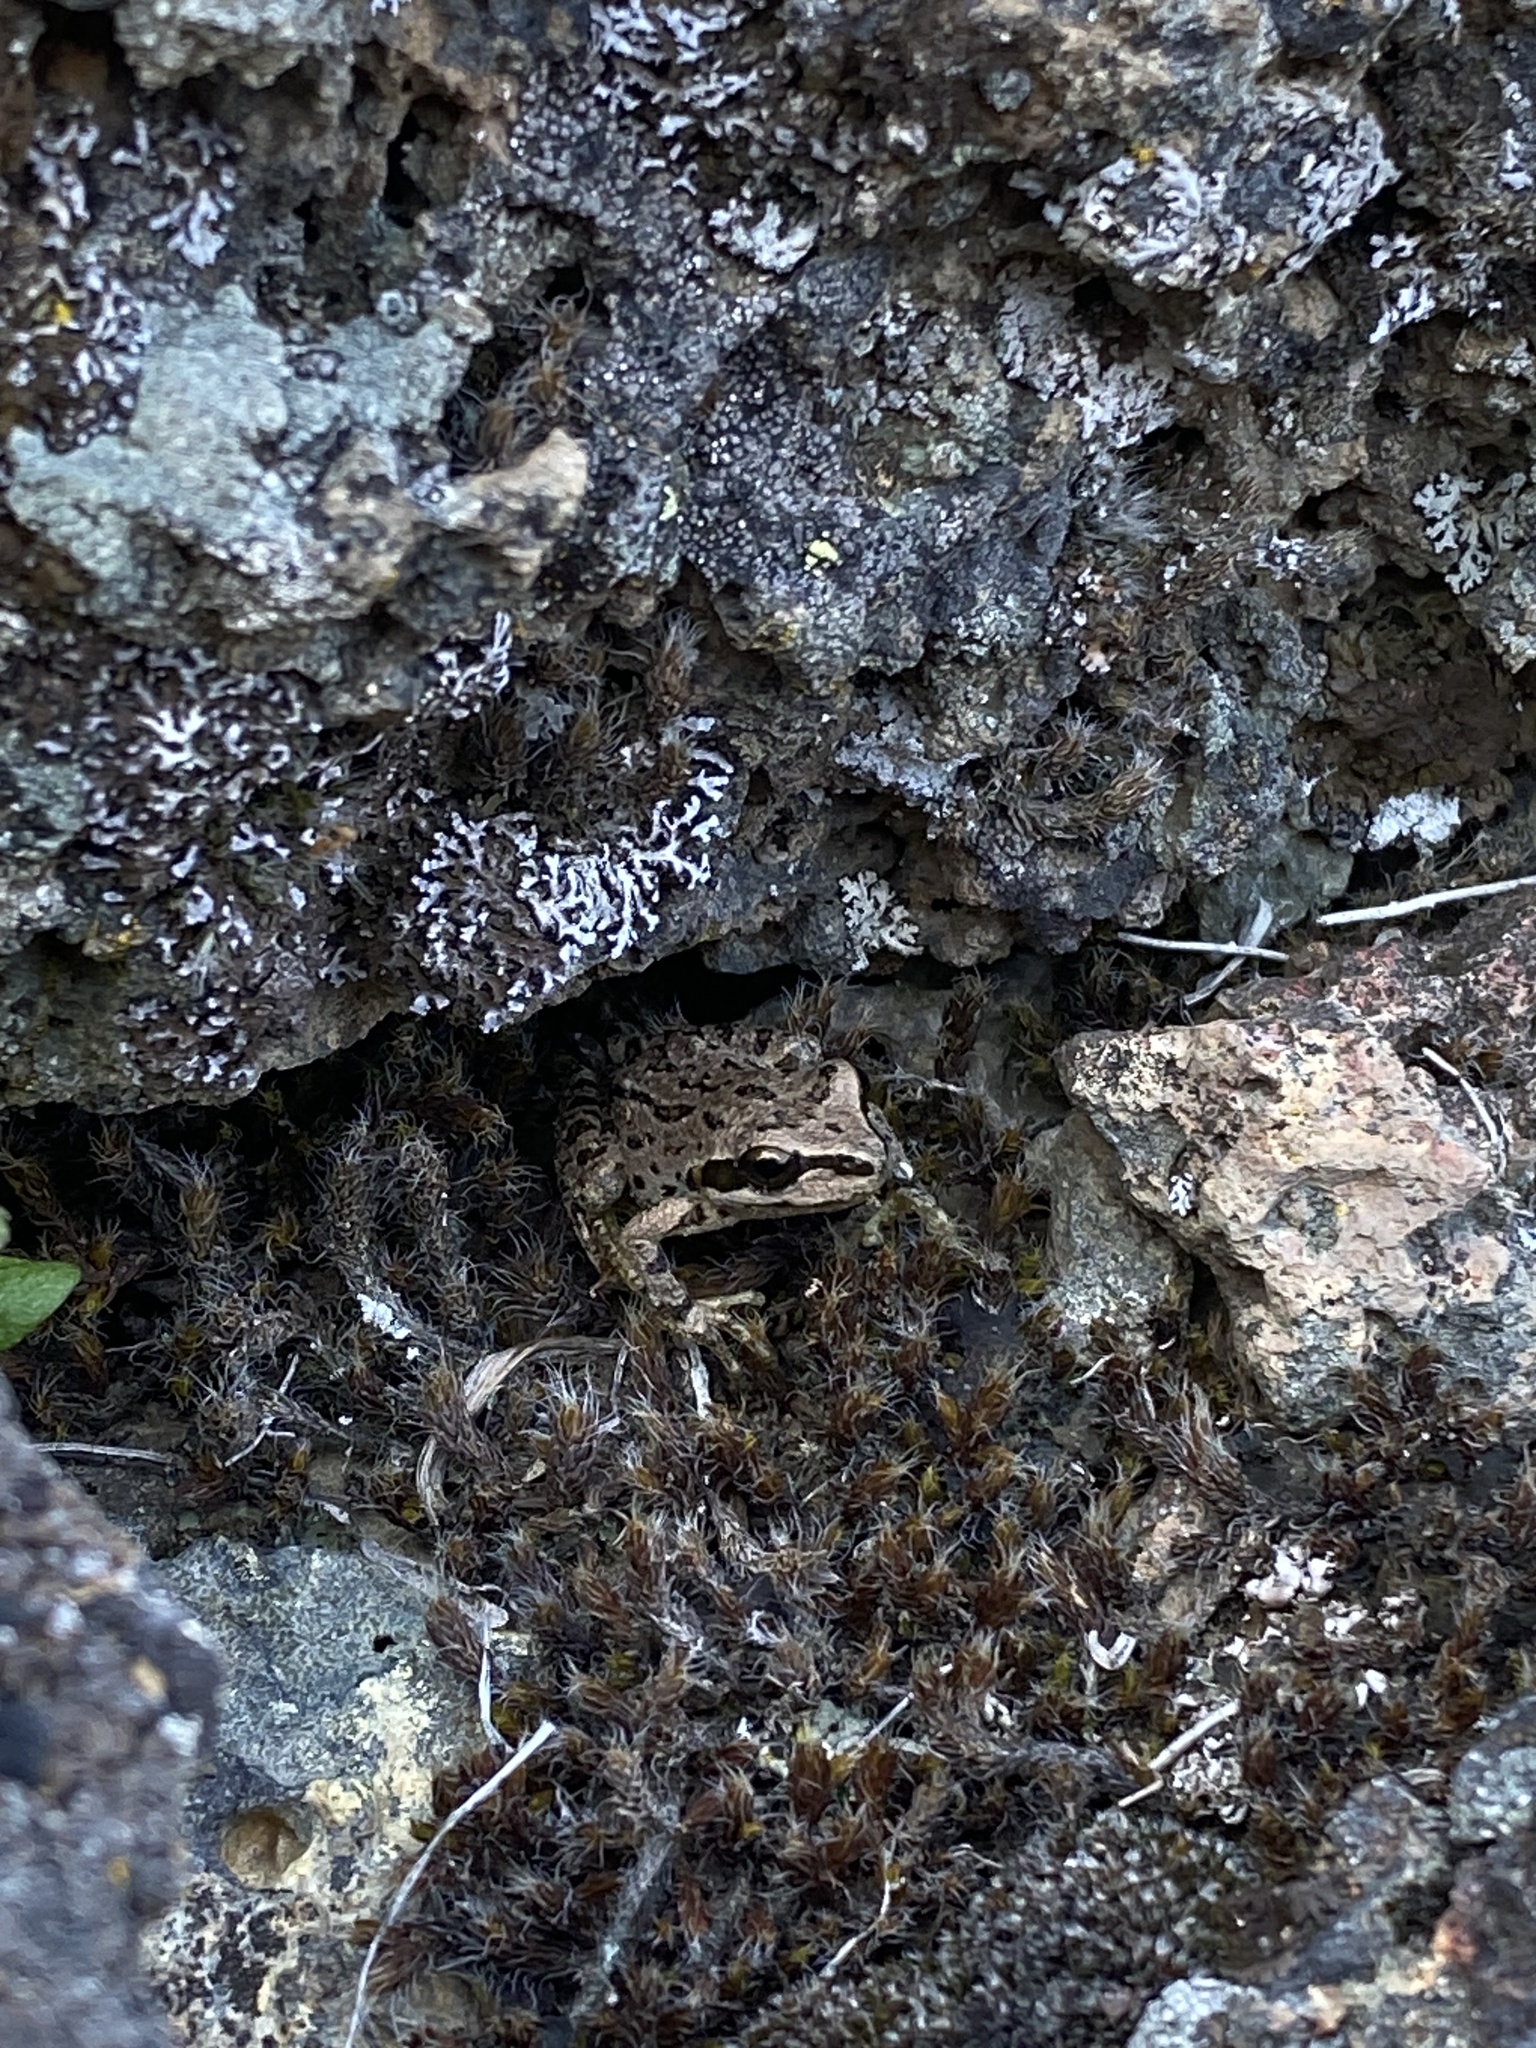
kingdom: Animalia
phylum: Chordata
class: Amphibia
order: Anura
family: Hylidae
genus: Pseudacris
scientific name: Pseudacris regilla
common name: Pacific chorus frog
